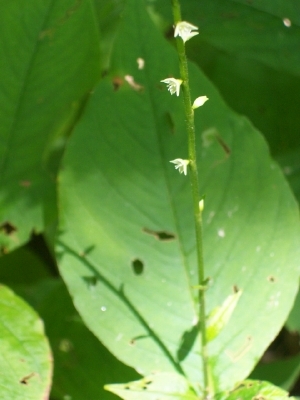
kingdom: Plantae
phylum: Tracheophyta
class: Magnoliopsida
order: Caryophyllales
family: Polygonaceae
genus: Persicaria
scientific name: Persicaria virginiana
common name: Jumpseed
